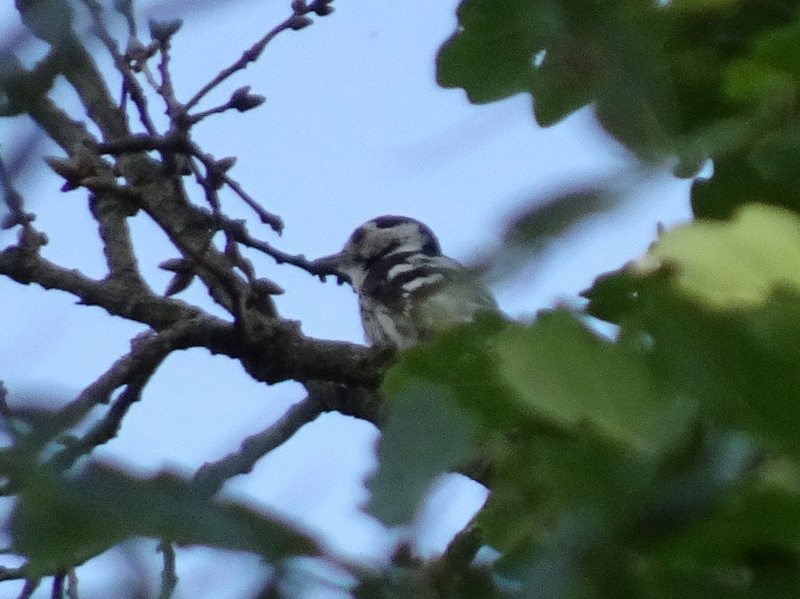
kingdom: Animalia
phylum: Chordata
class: Aves
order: Piciformes
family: Picidae
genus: Dryobates
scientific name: Dryobates minor
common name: Lesser spotted woodpecker
